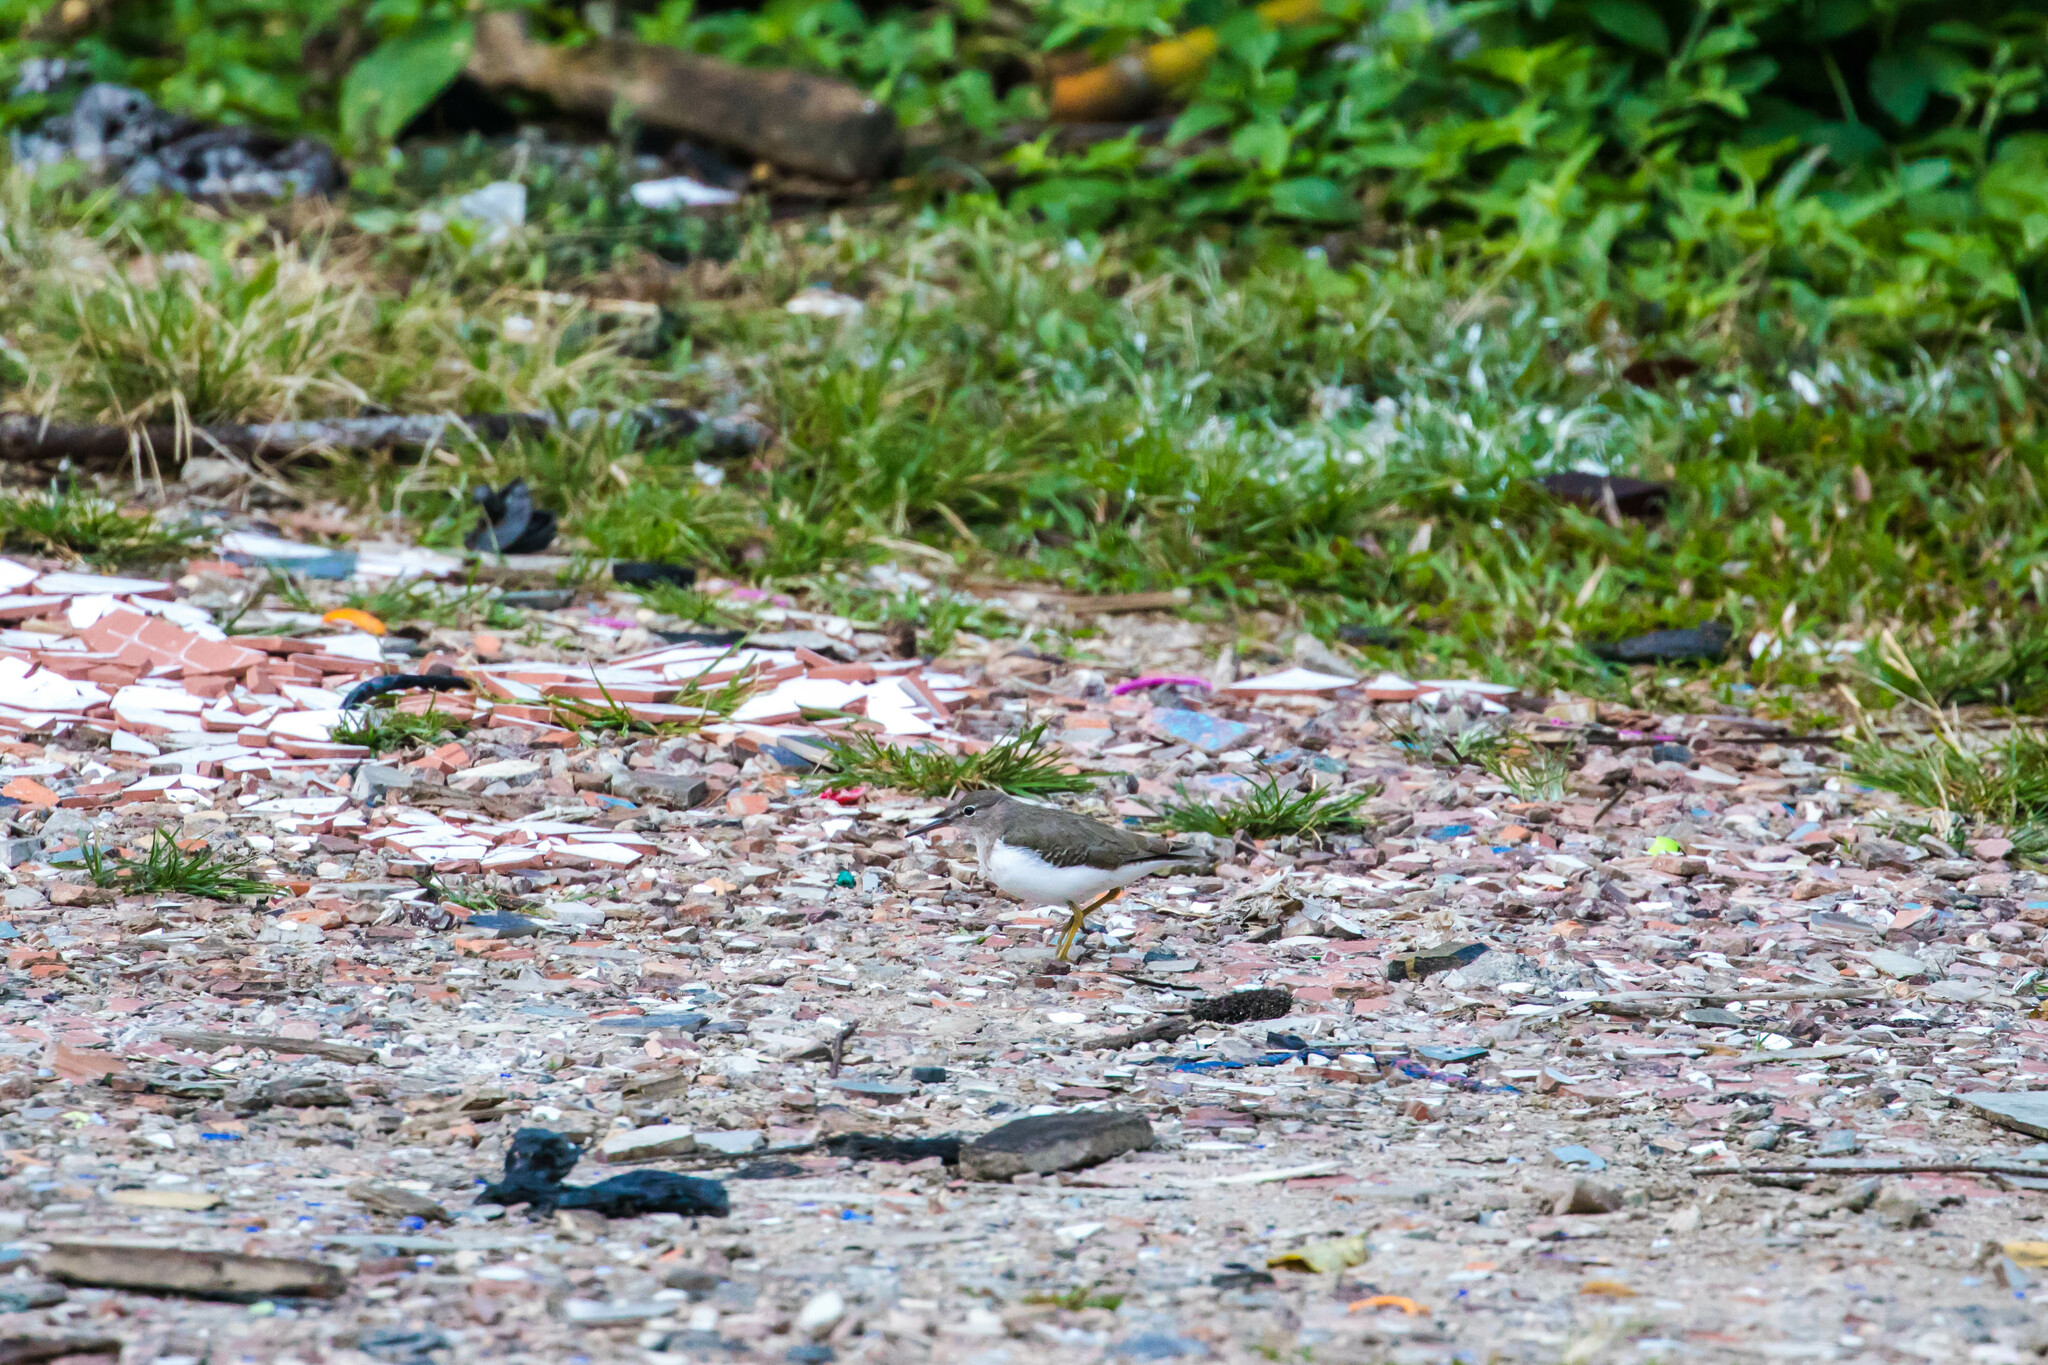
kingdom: Animalia
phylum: Chordata
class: Aves
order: Charadriiformes
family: Scolopacidae
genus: Actitis
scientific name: Actitis macularius
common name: Spotted sandpiper
